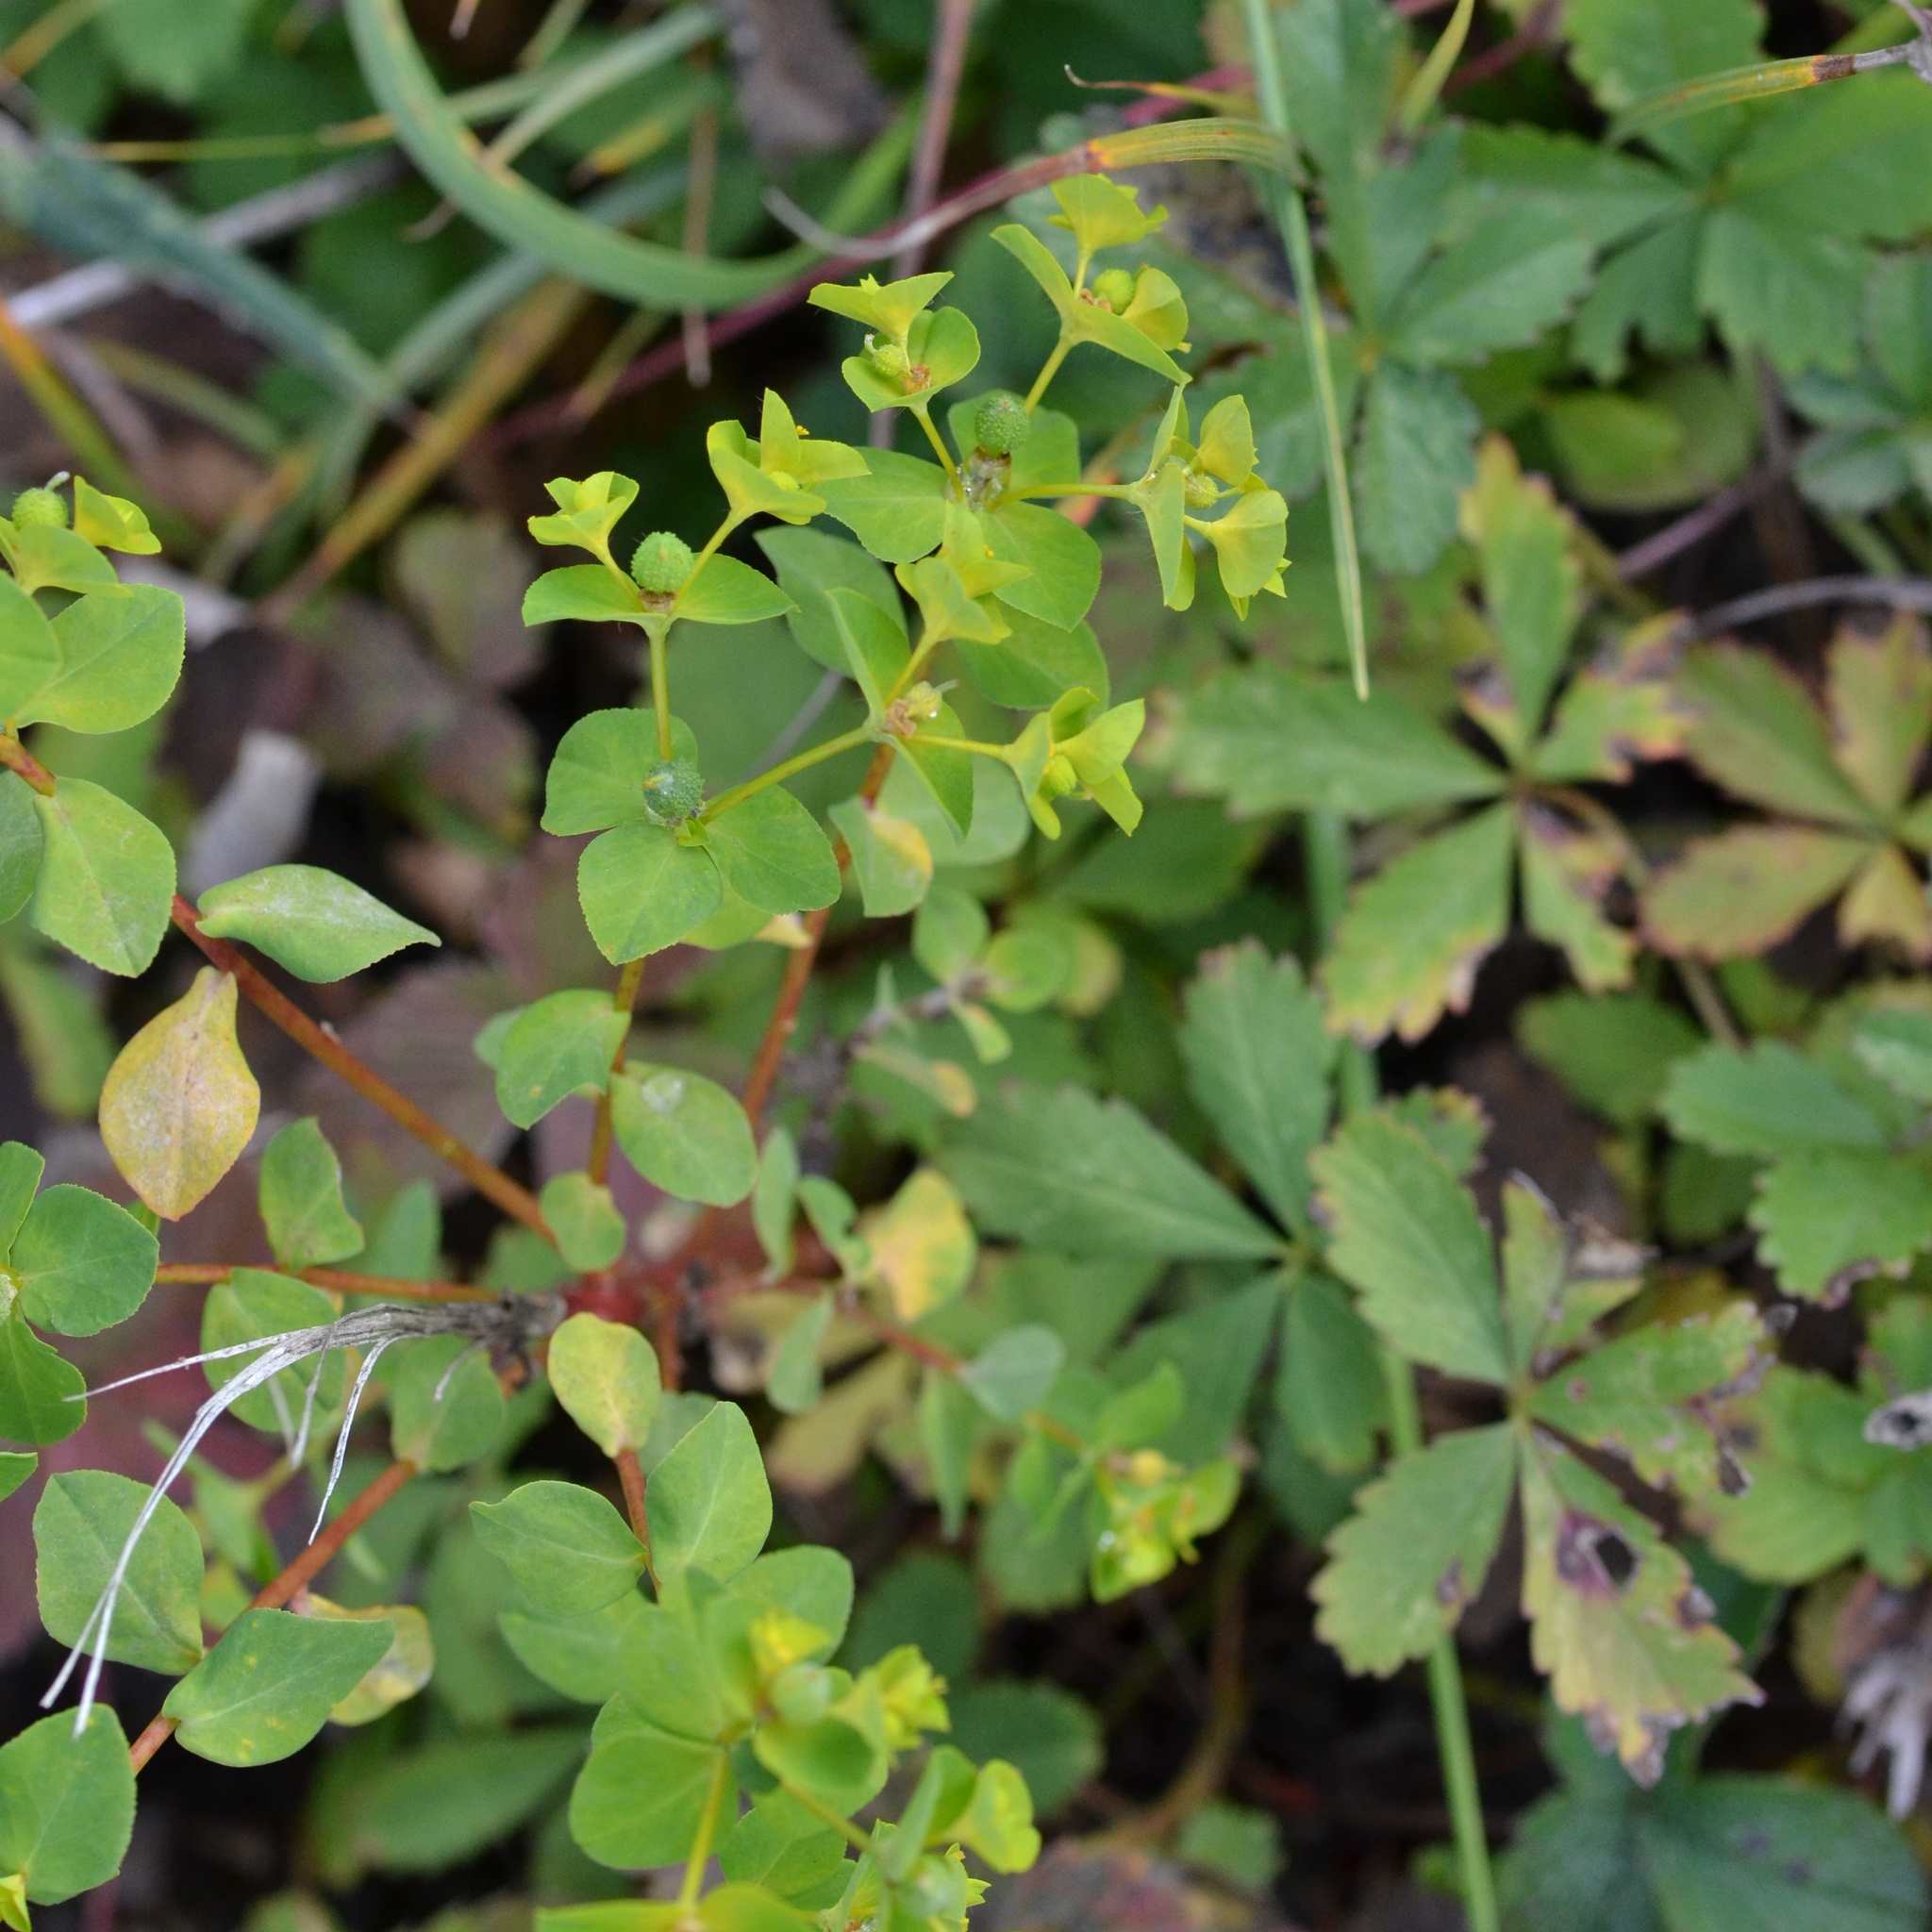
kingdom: Plantae
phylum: Tracheophyta
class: Magnoliopsida
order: Malpighiales
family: Euphorbiaceae
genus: Euphorbia
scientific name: Euphorbia platyphyllos
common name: Broad-leaved spurge
